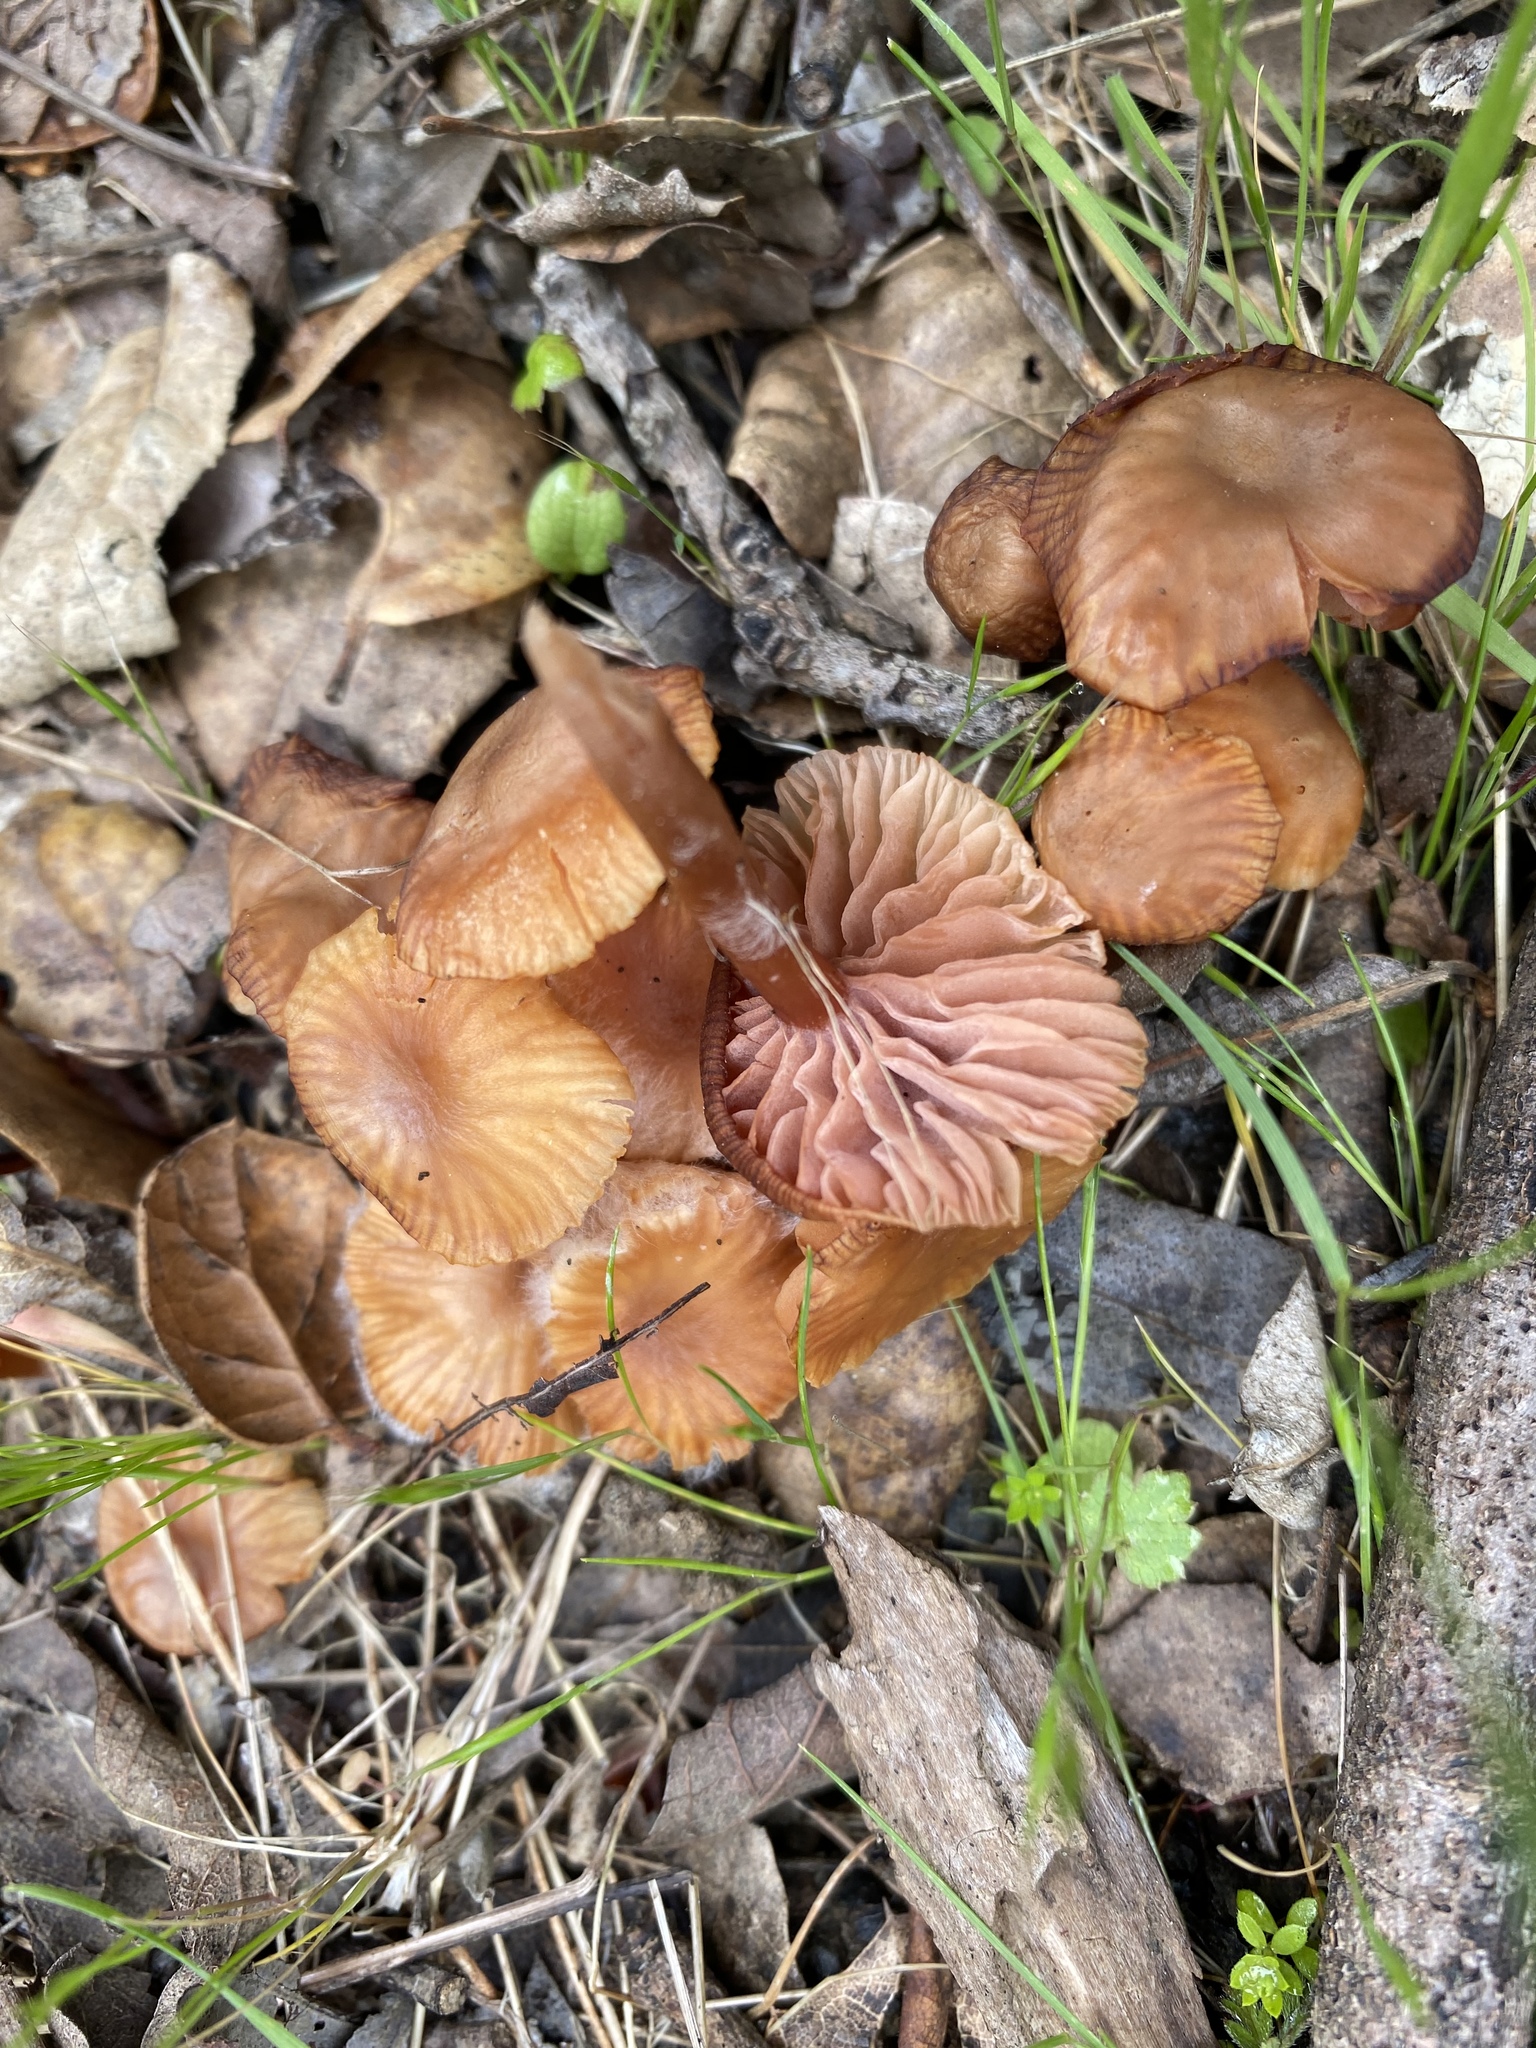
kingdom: Fungi
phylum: Basidiomycota
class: Agaricomycetes
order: Agaricales
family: Hydnangiaceae
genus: Laccaria
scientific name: Laccaria laccata
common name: Deceiver
